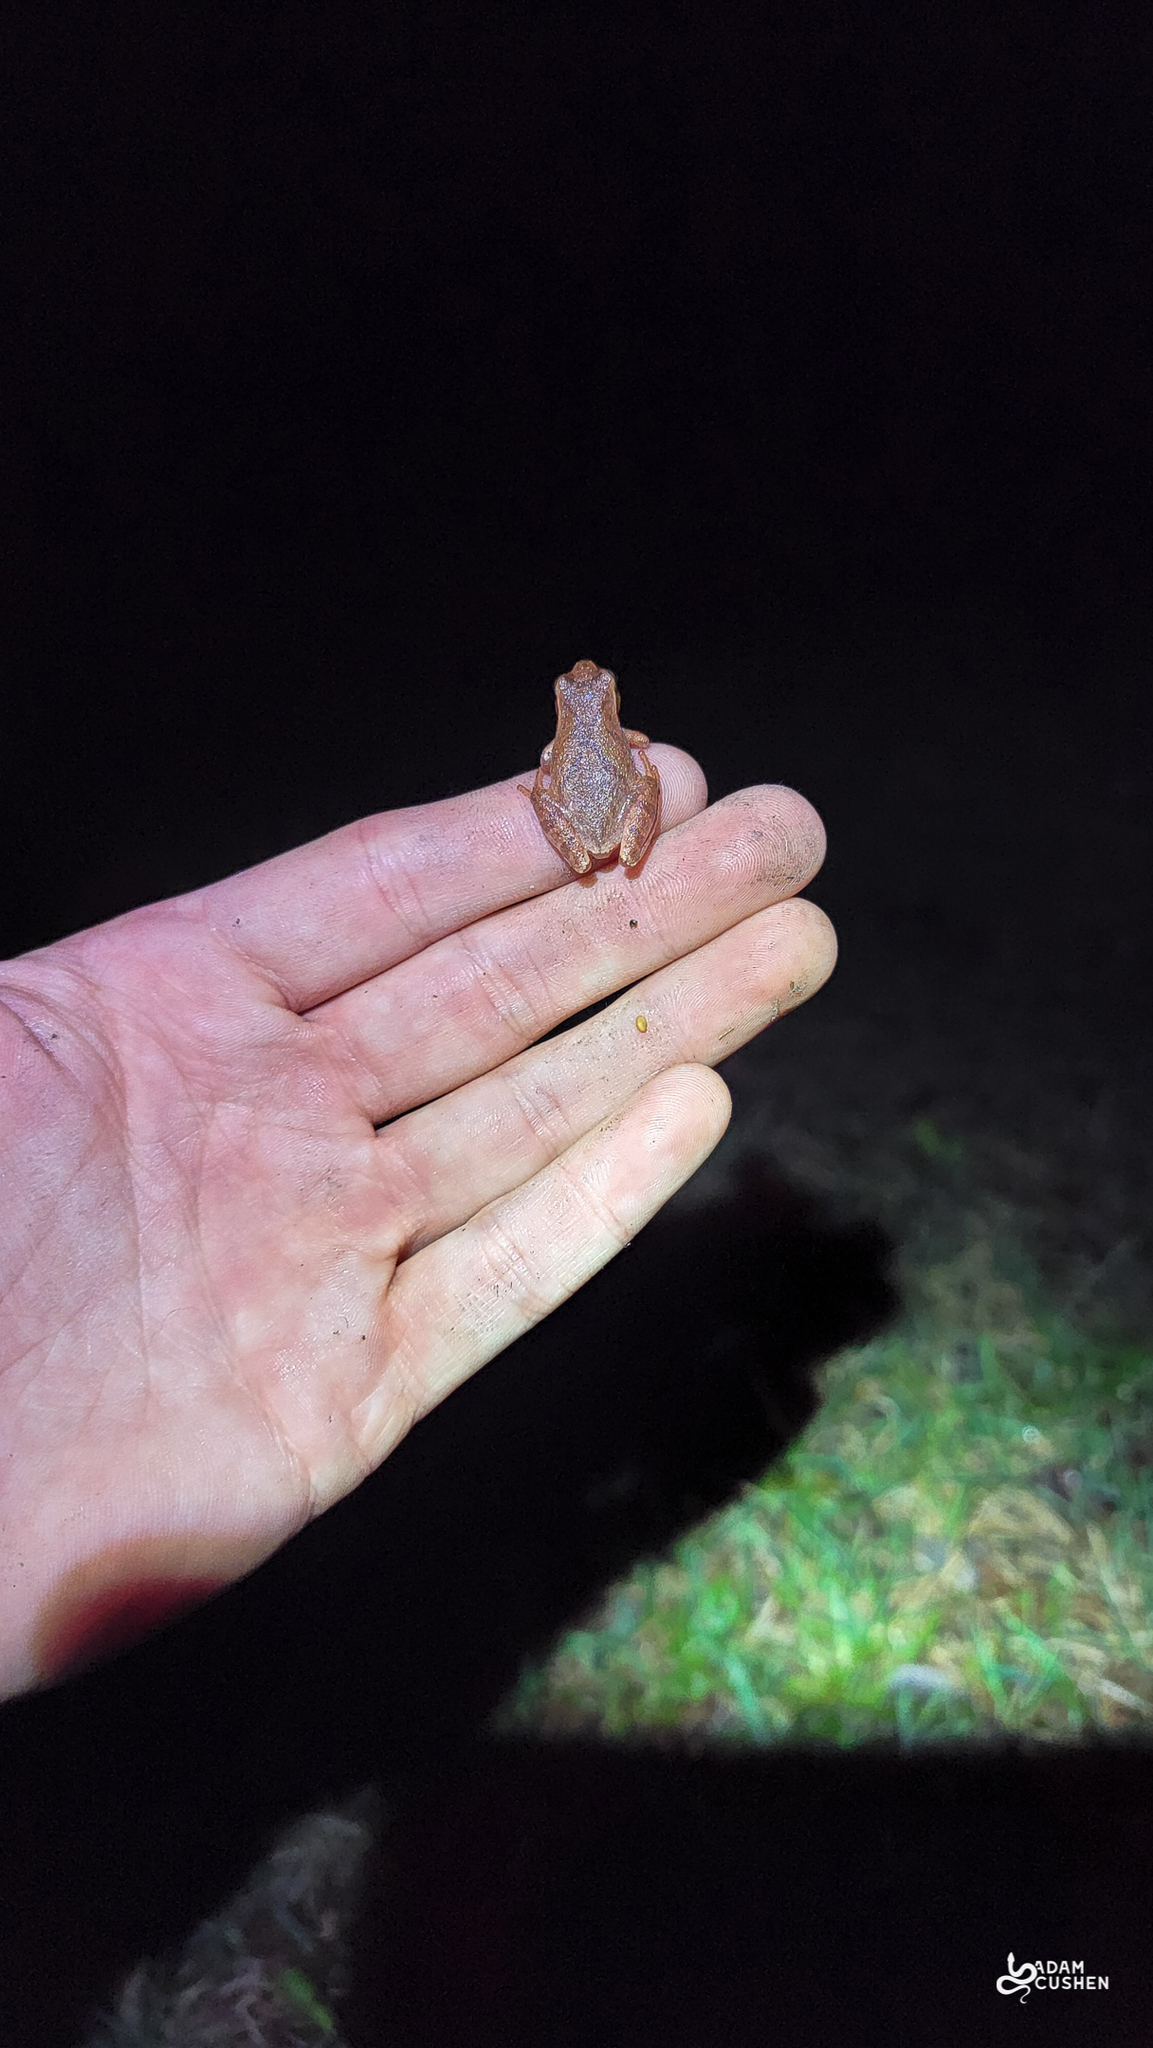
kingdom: Animalia
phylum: Chordata
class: Amphibia
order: Anura
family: Hylidae
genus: Pseudacris
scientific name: Pseudacris crucifer
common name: Spring peeper
